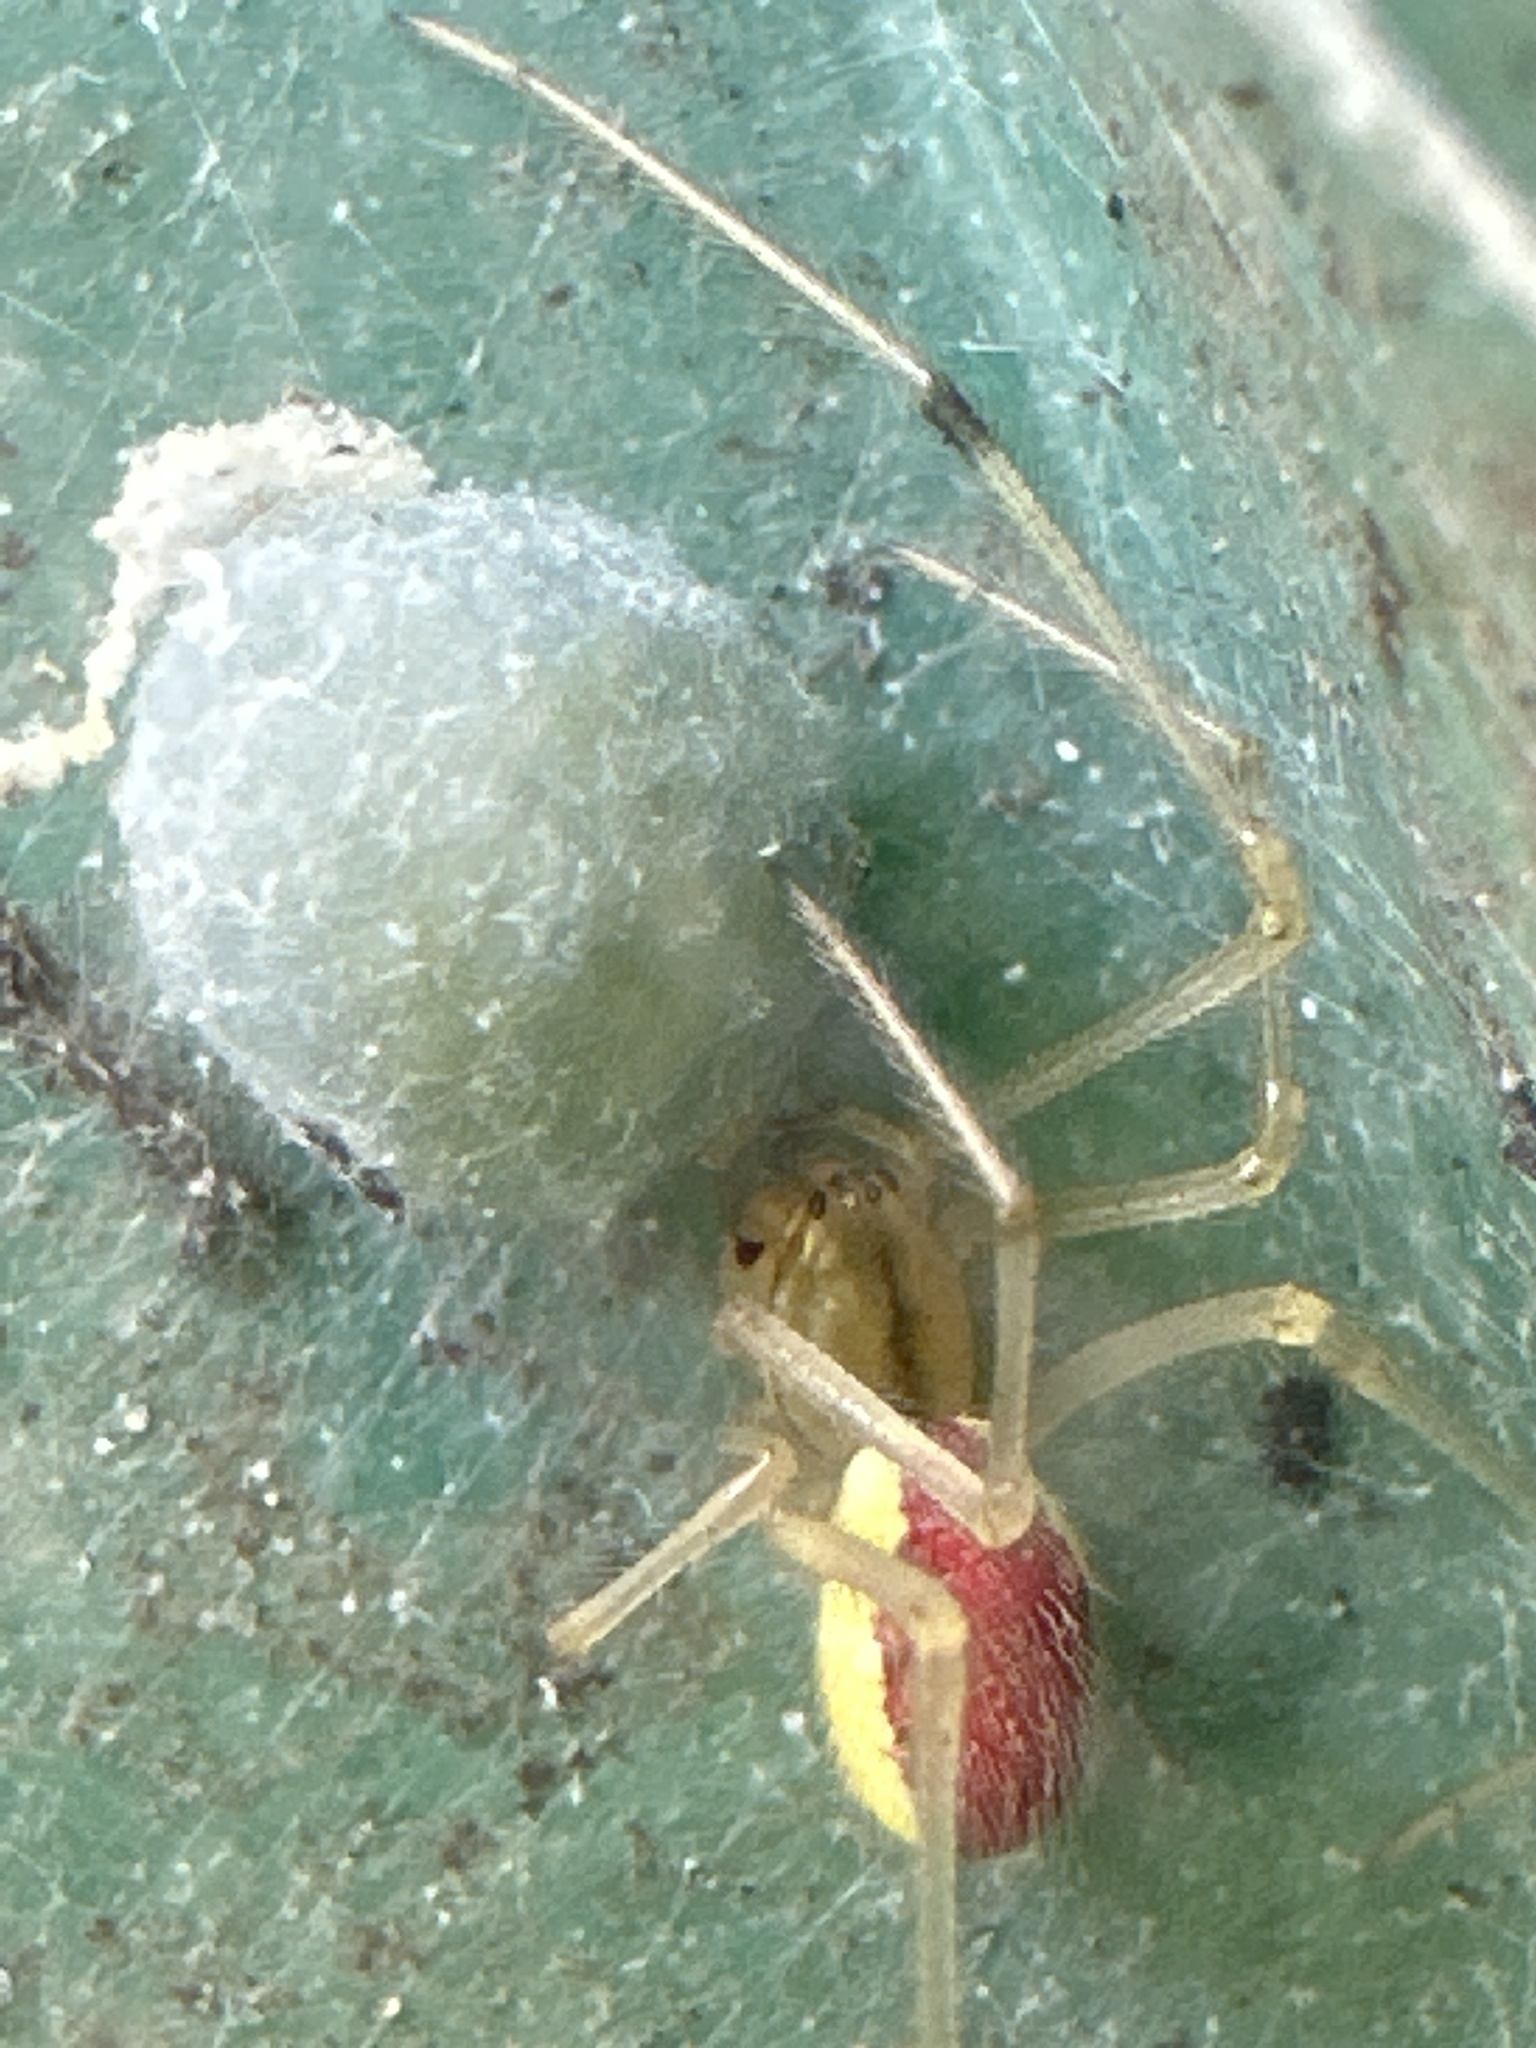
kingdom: Animalia
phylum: Arthropoda
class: Arachnida
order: Araneae
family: Theridiidae
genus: Enoplognatha
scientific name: Enoplognatha
